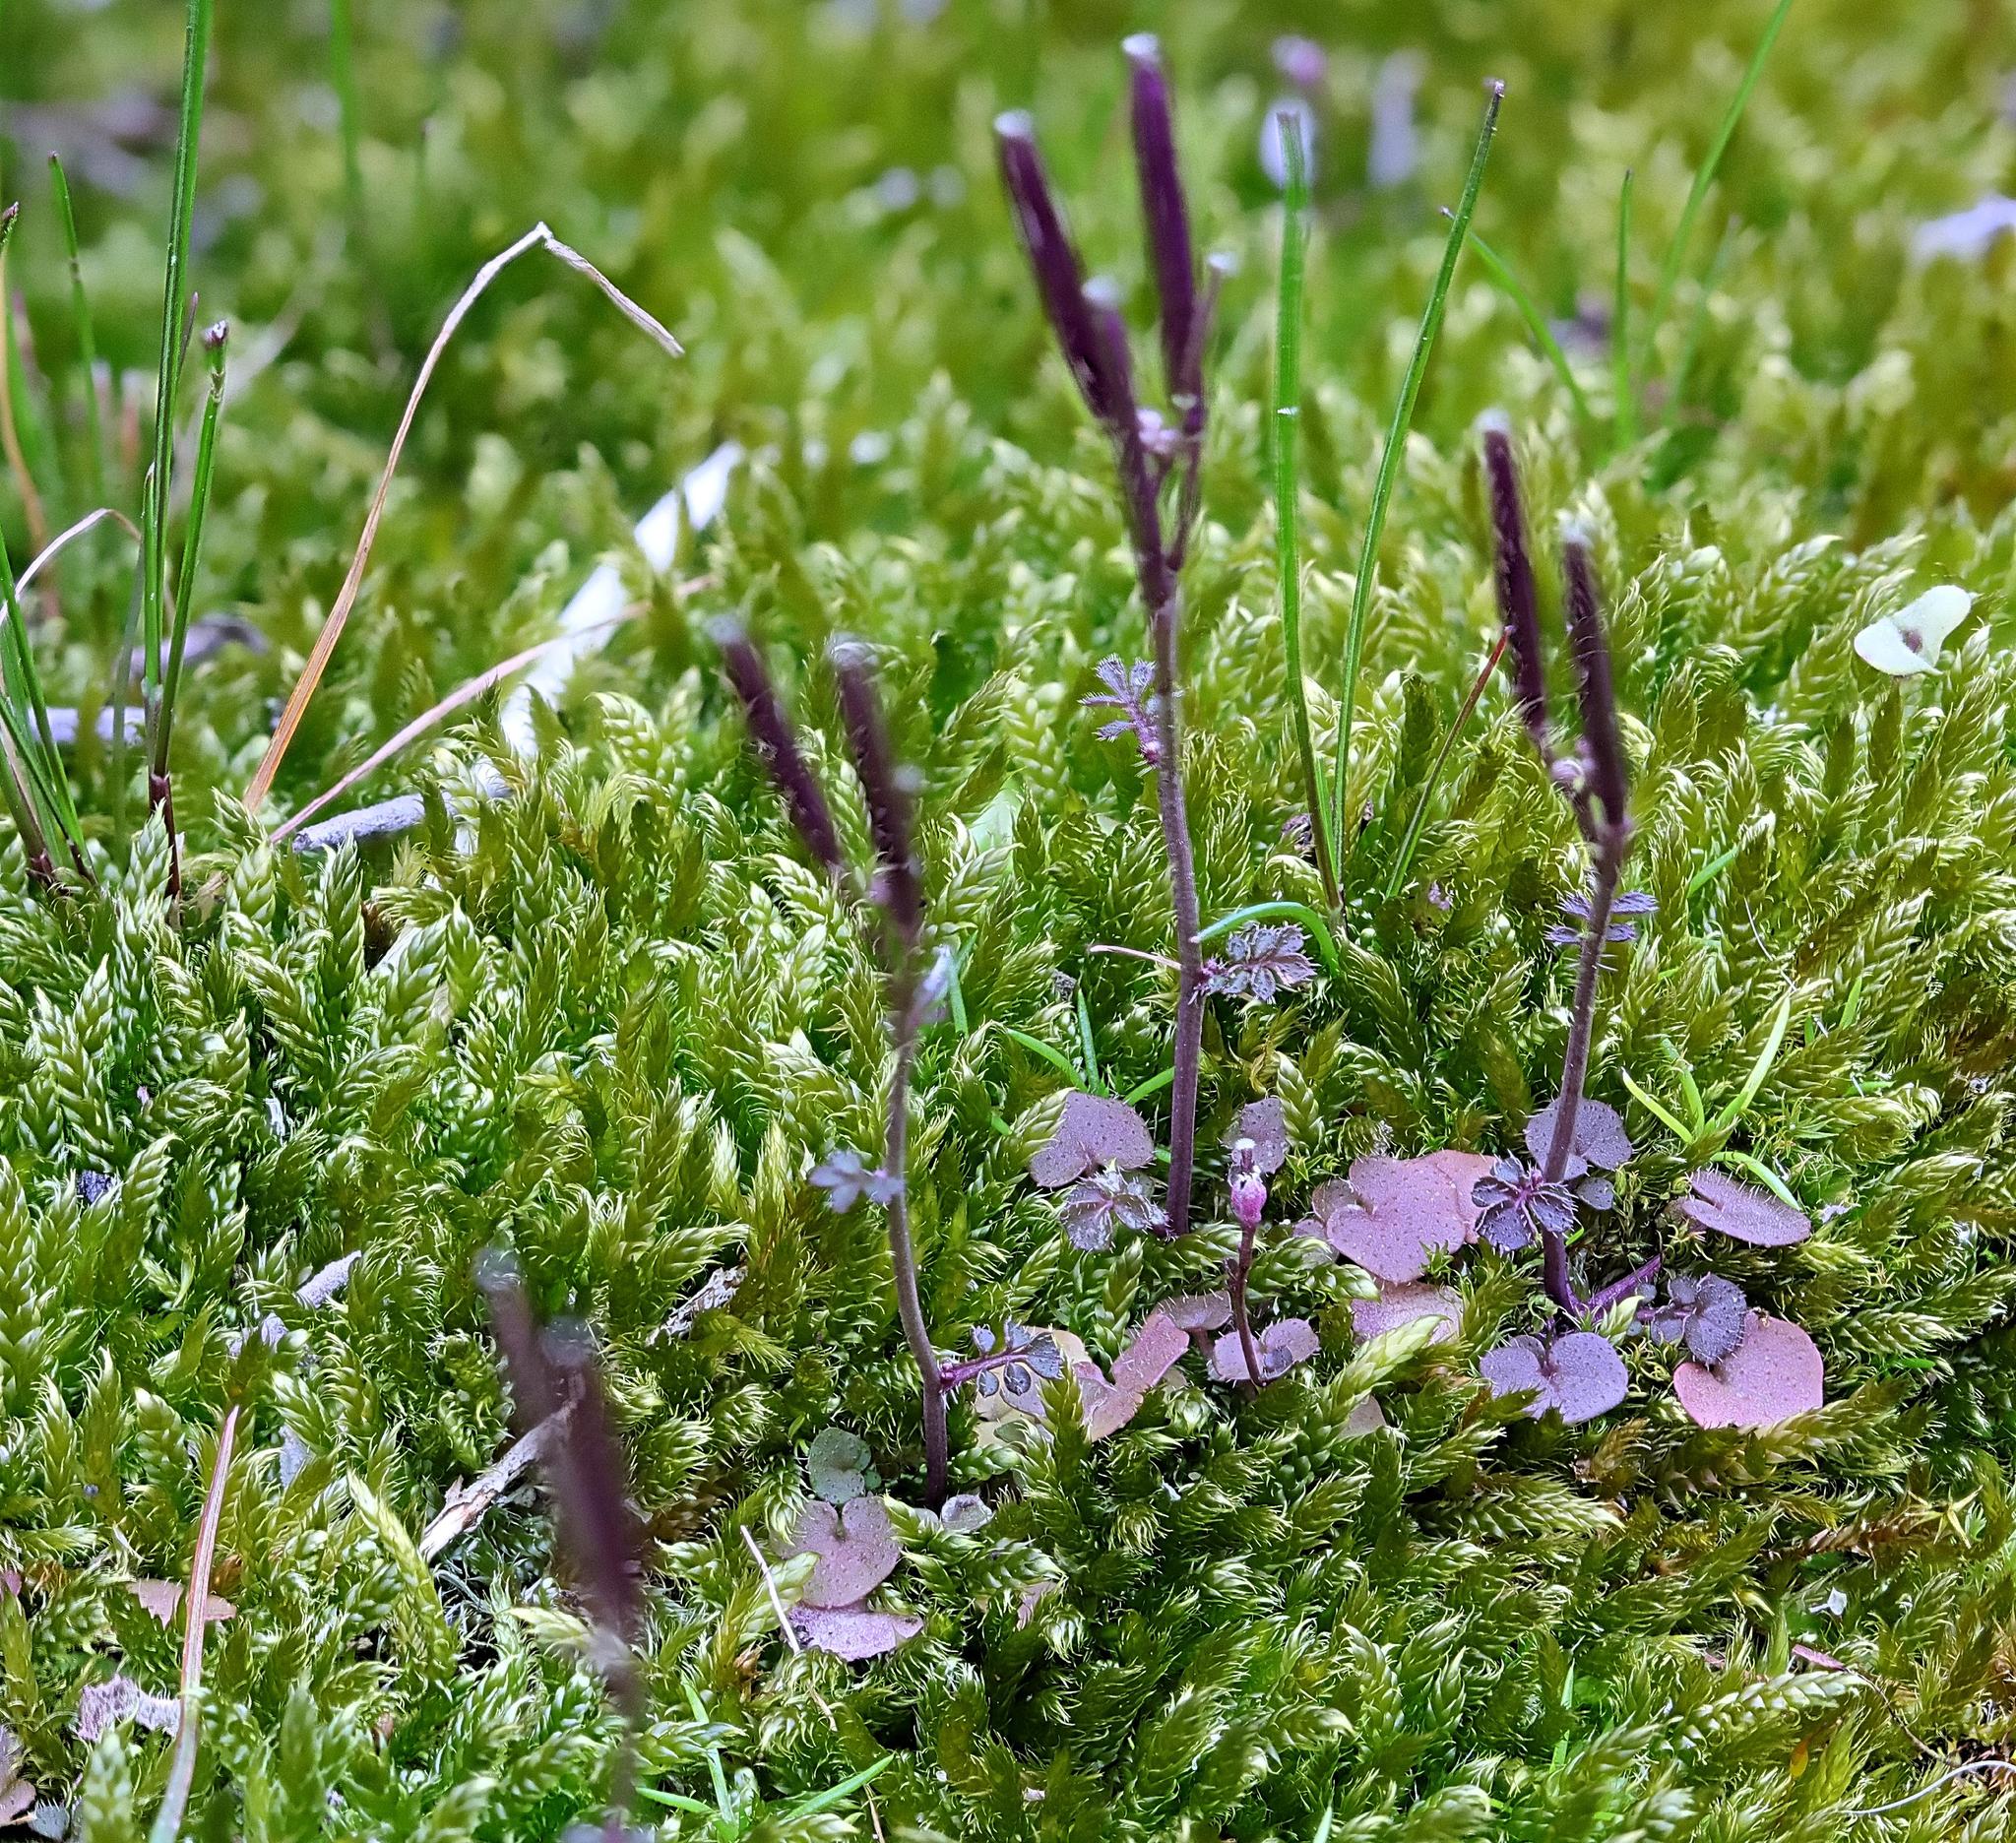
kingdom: Plantae
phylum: Tracheophyta
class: Magnoliopsida
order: Brassicales
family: Brassicaceae
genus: Cardamine
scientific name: Cardamine hirsuta
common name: Hairy bittercress
